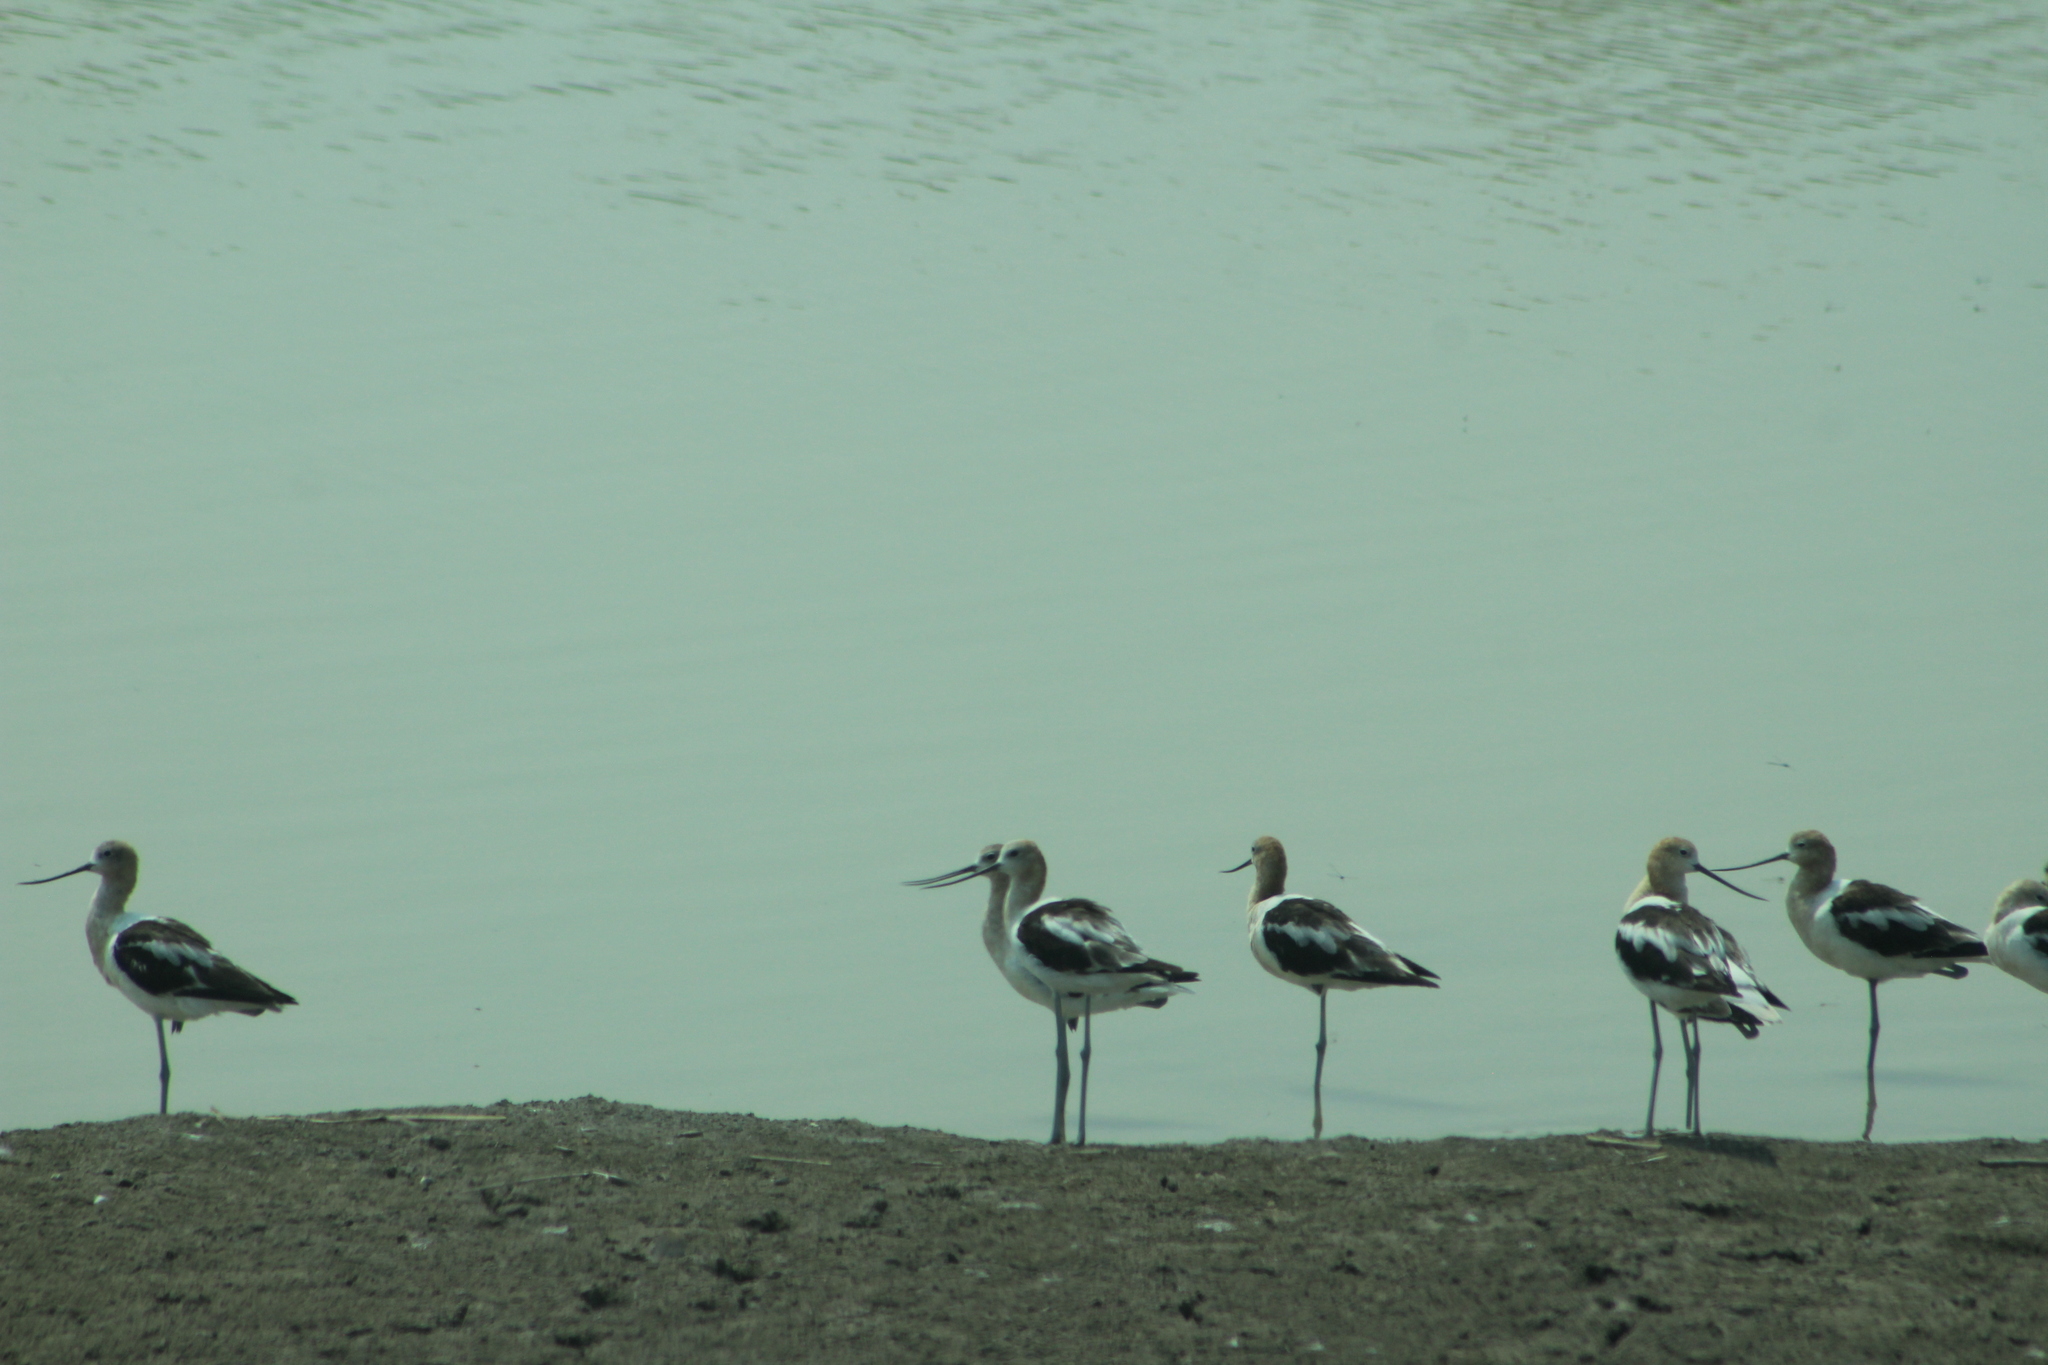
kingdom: Animalia
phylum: Chordata
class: Aves
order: Charadriiformes
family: Recurvirostridae
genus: Recurvirostra
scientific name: Recurvirostra americana
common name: American avocet
